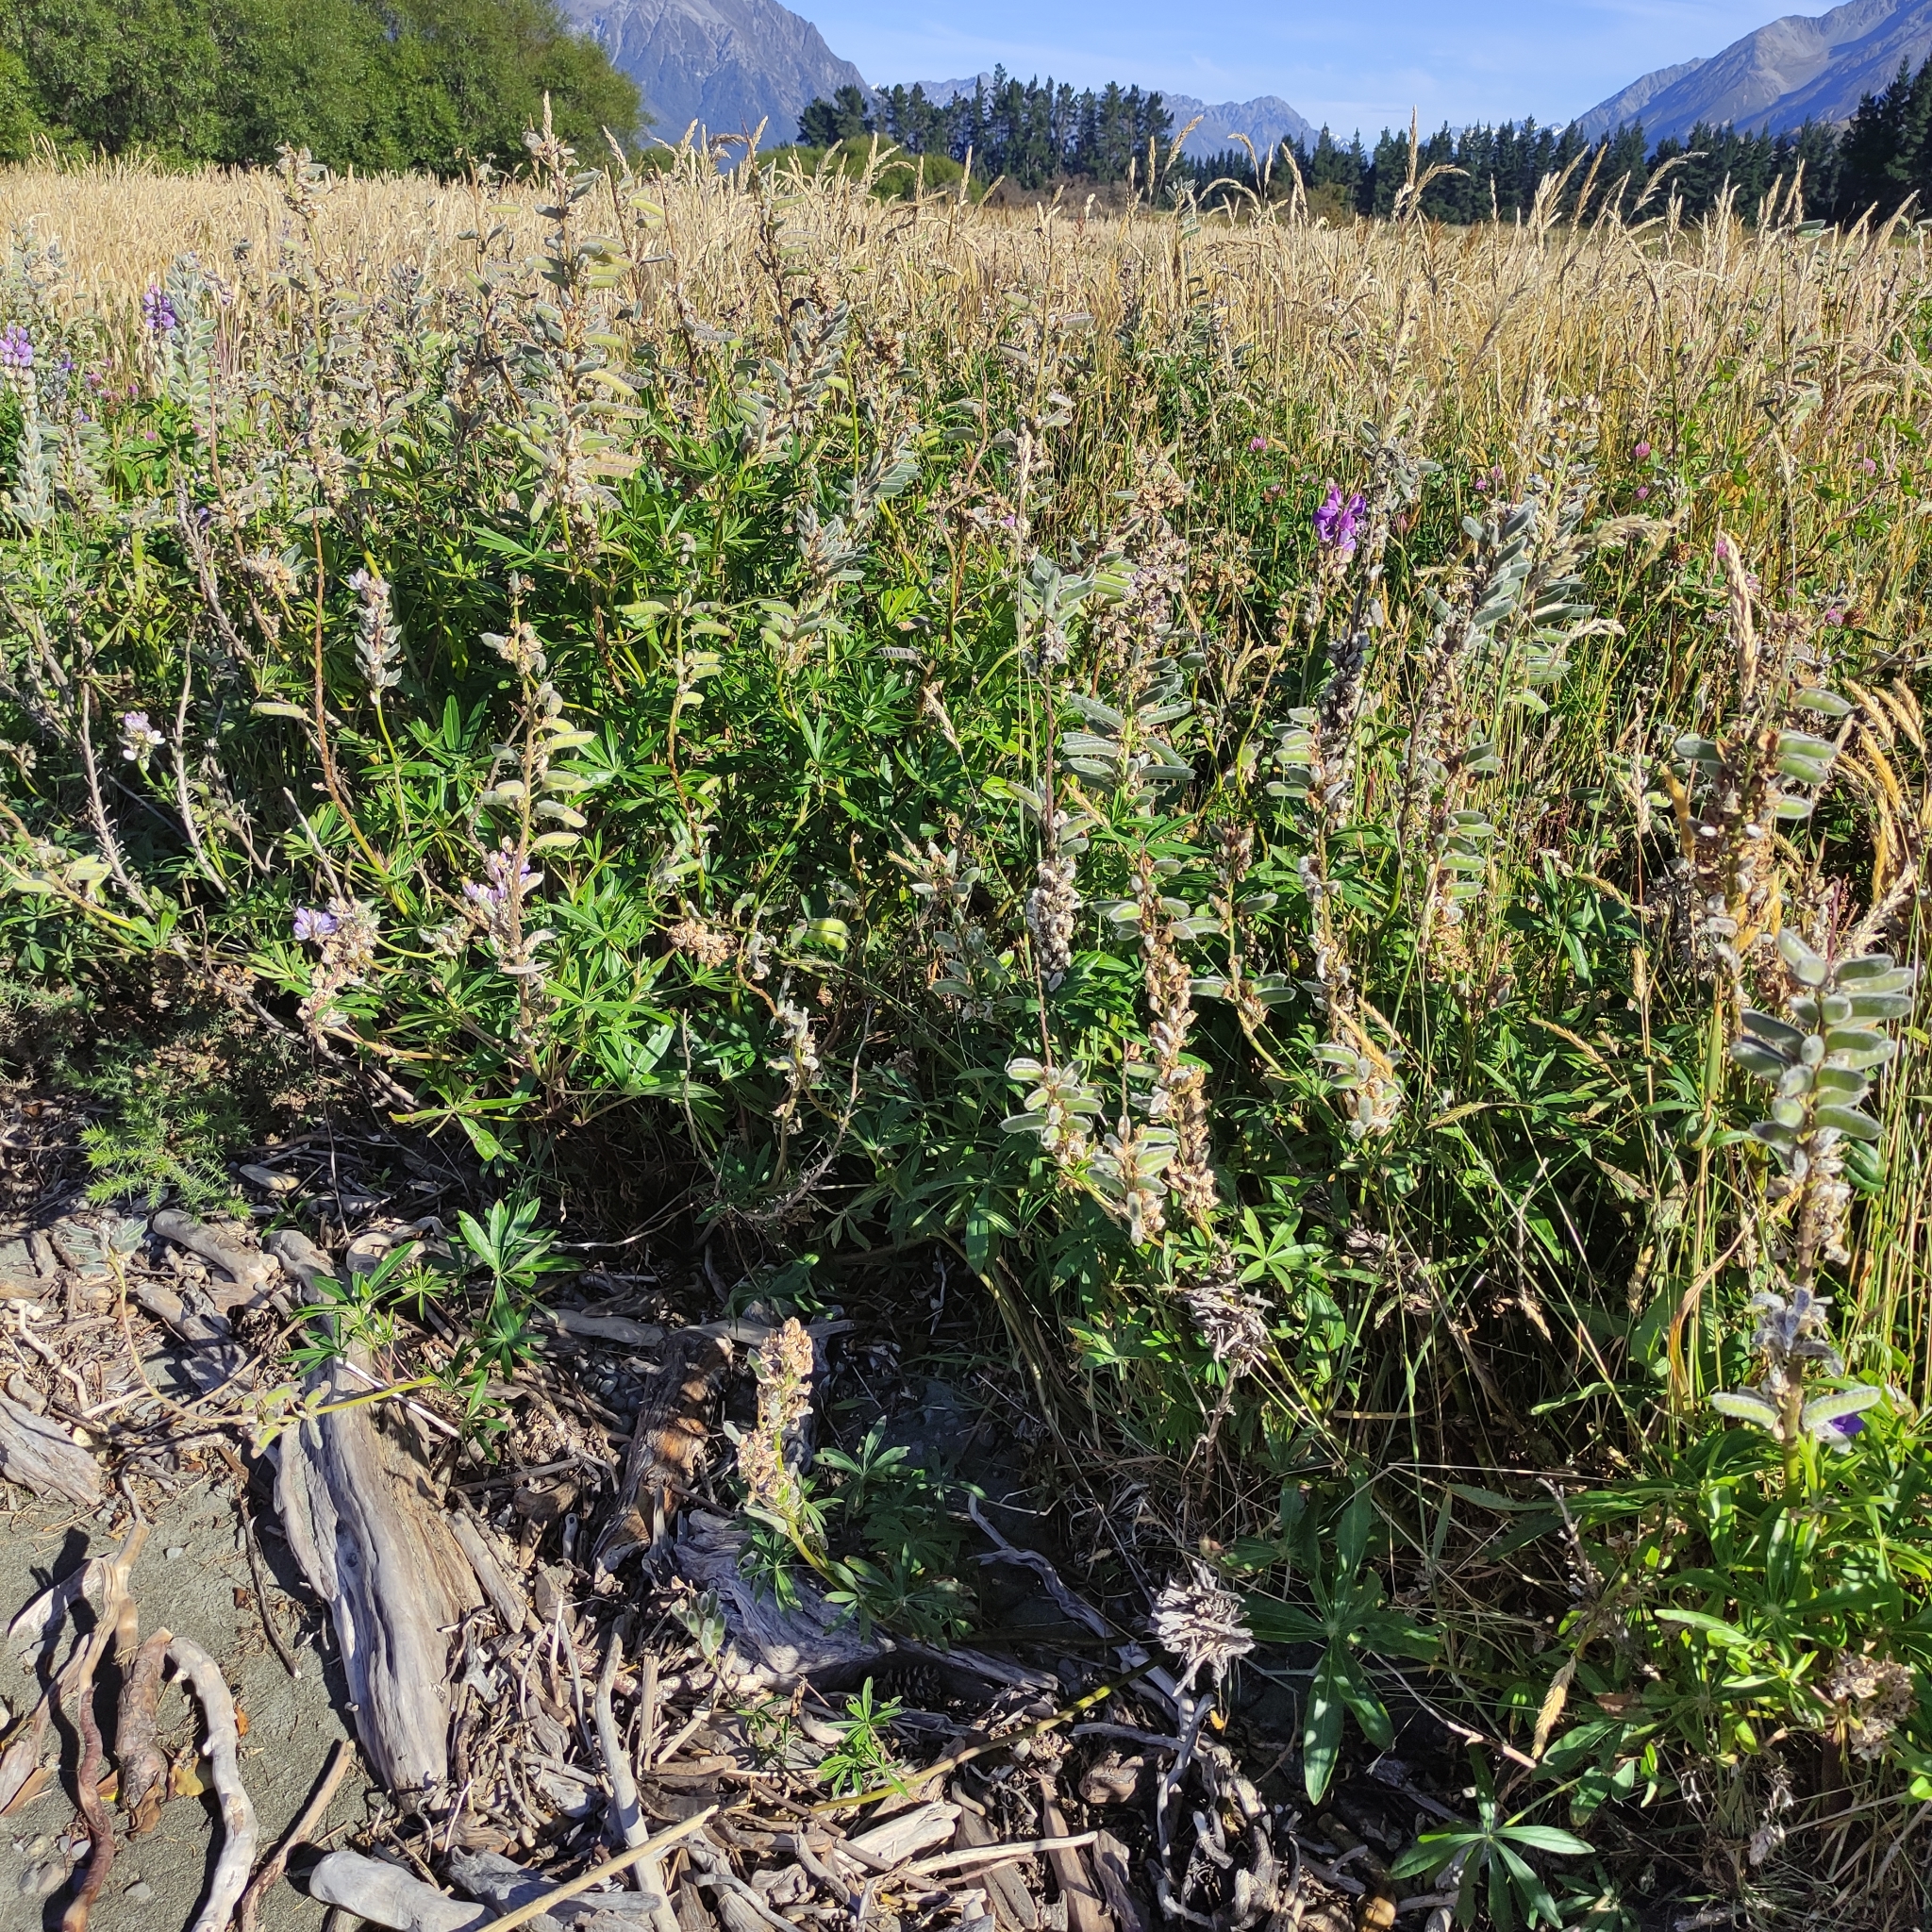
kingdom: Plantae
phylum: Tracheophyta
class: Magnoliopsida
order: Fabales
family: Fabaceae
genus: Lupinus
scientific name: Lupinus polyphyllus
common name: Garden lupin
